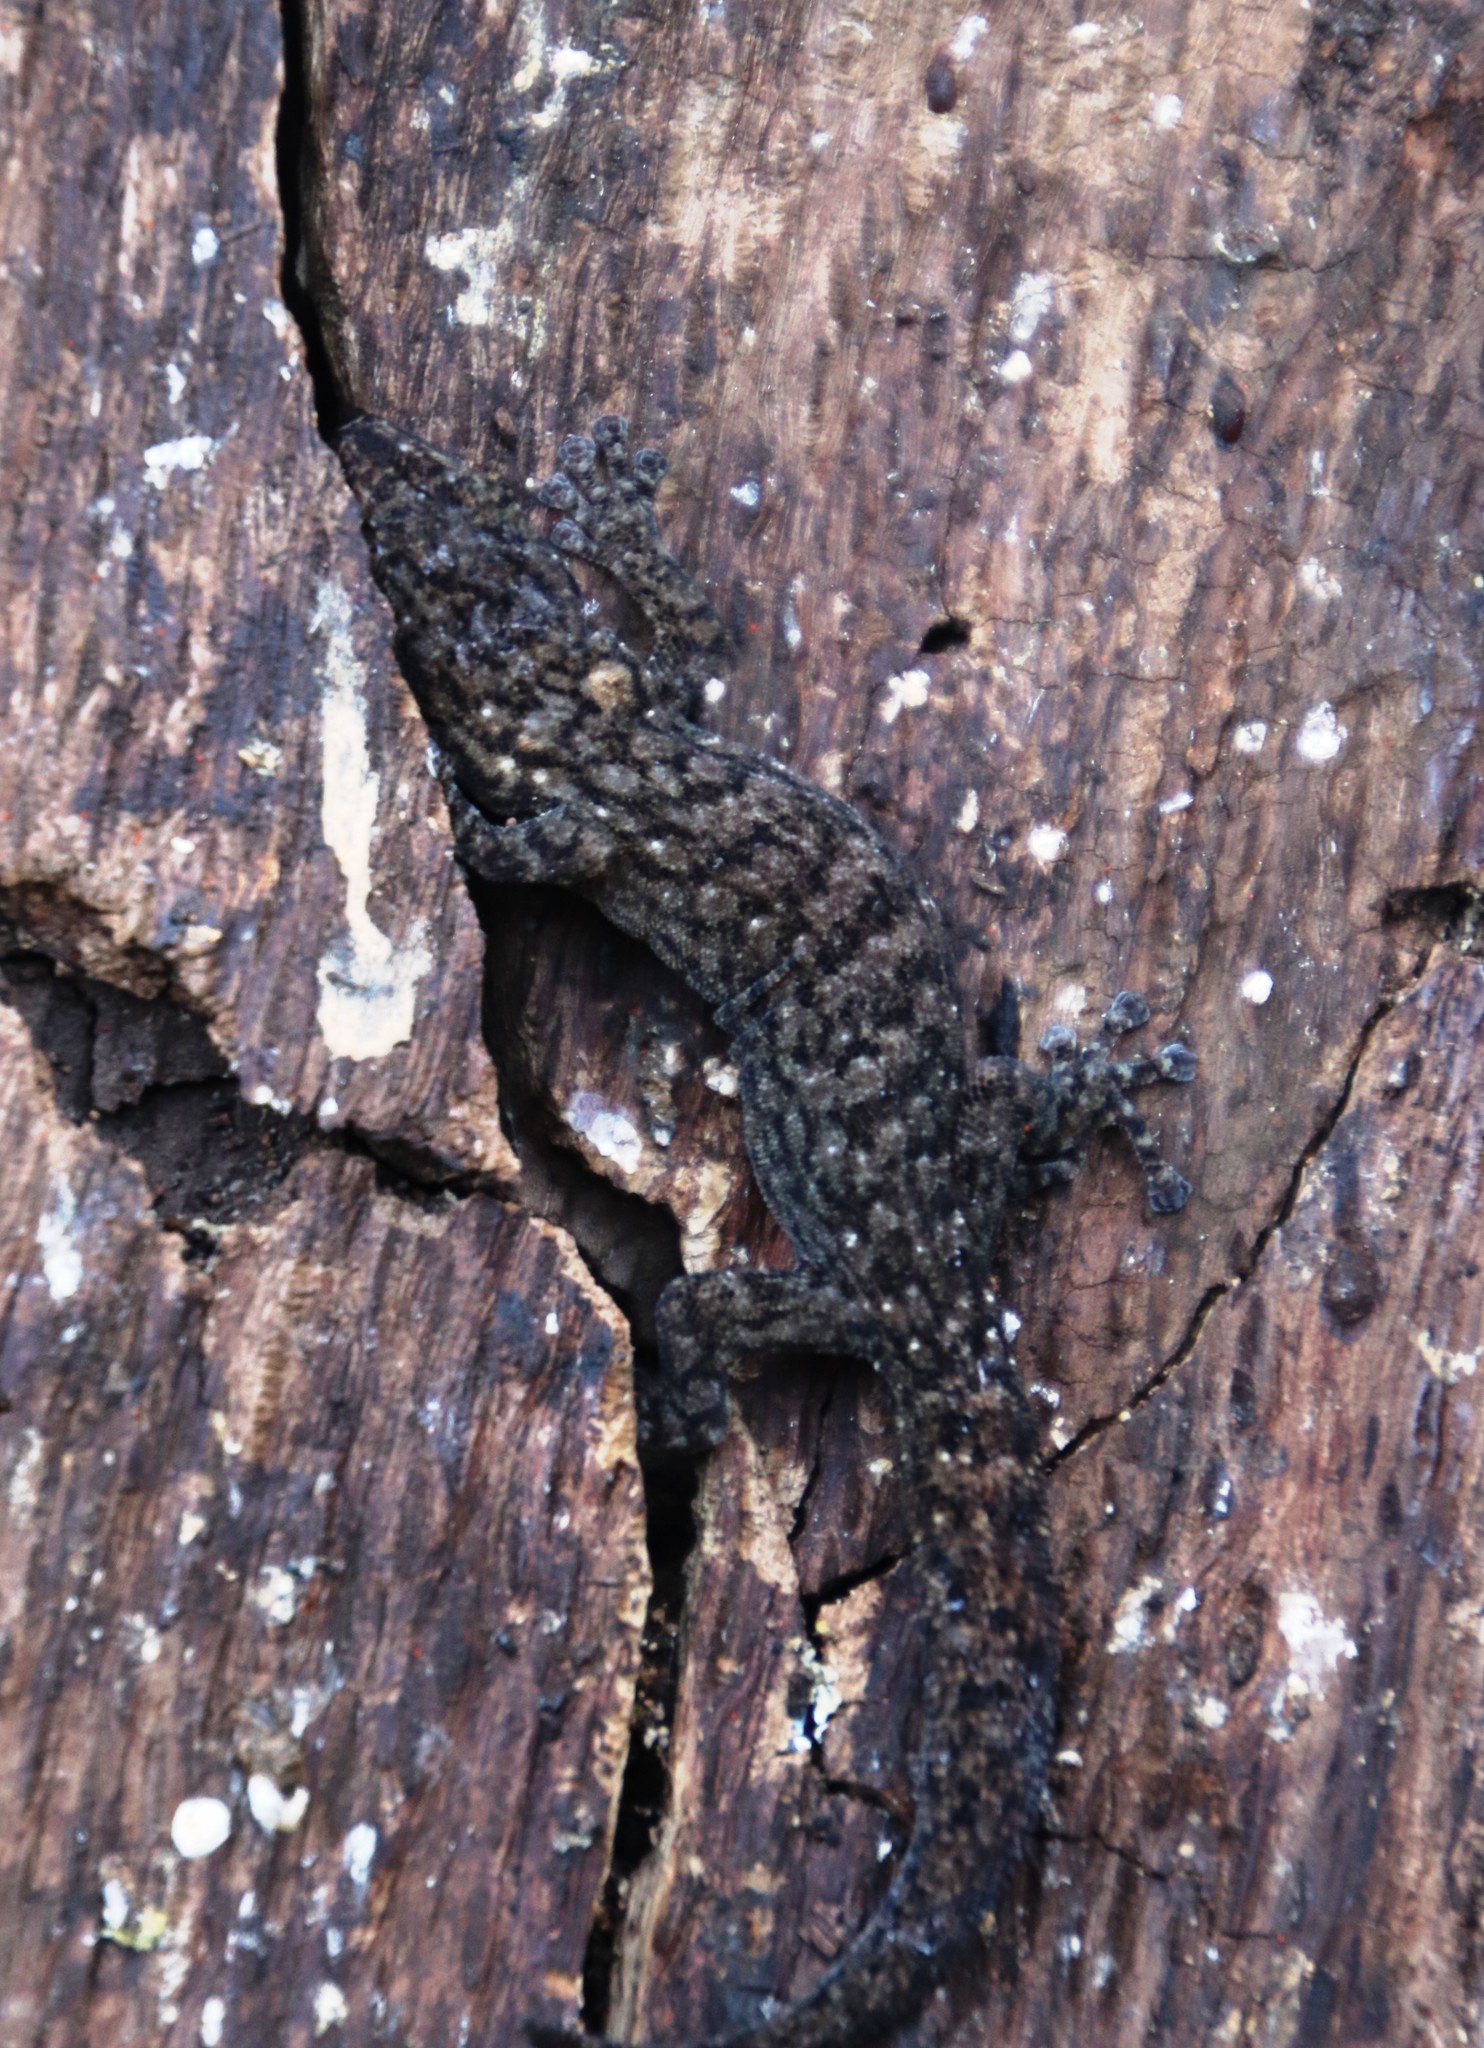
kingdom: Animalia
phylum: Chordata
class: Squamata
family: Gekkonidae
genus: Afrogecko
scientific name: Afrogecko porphyreus
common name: Marbled leaf-toed gecko
